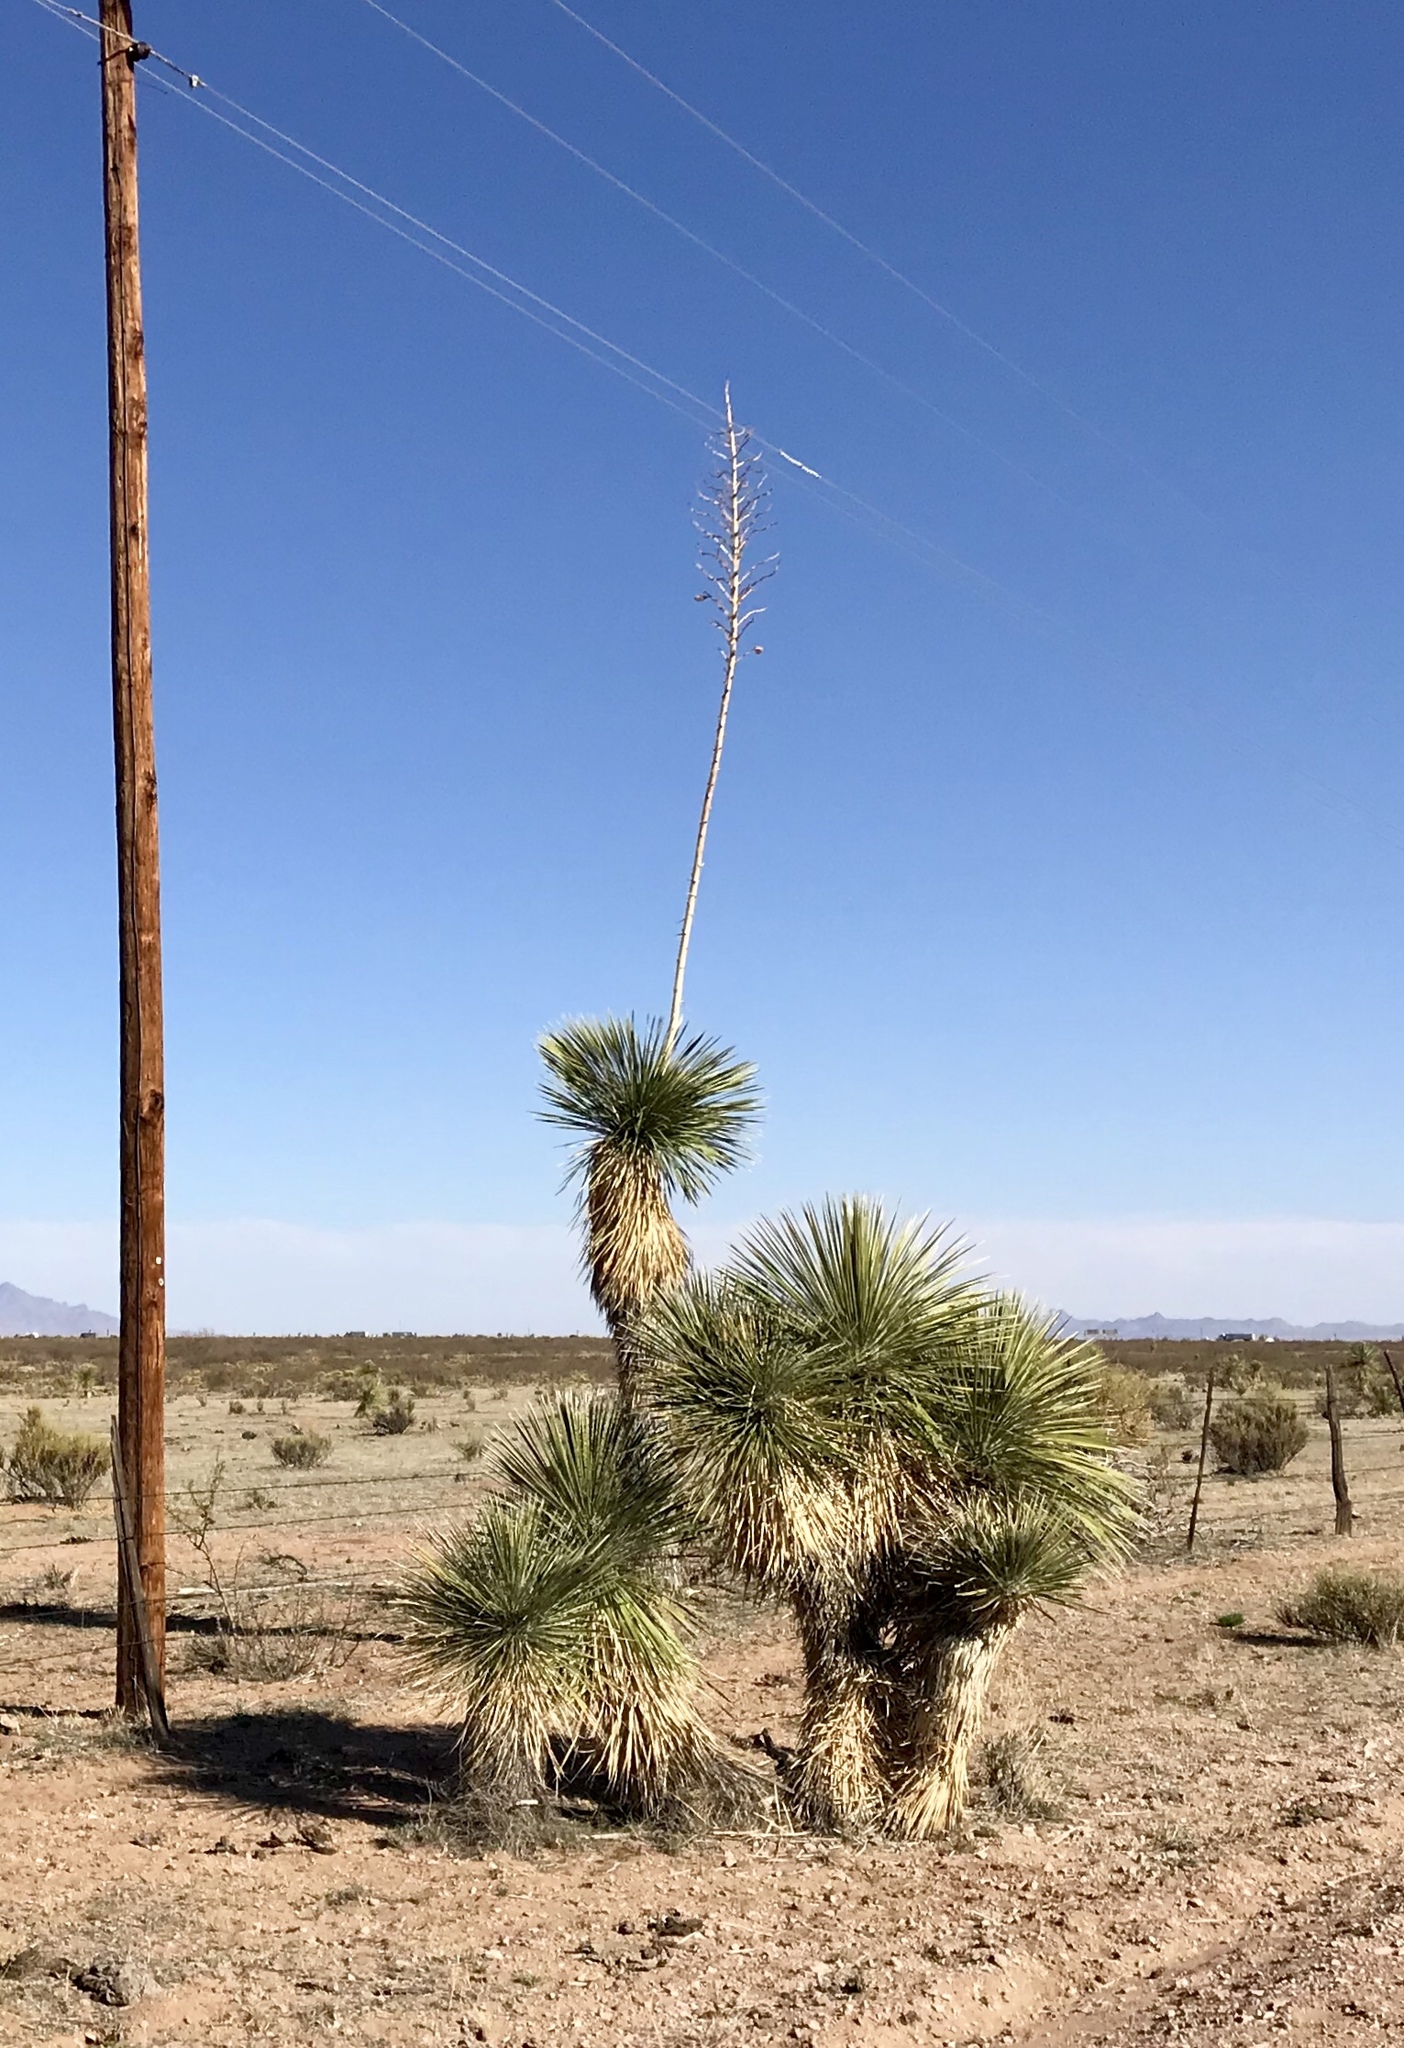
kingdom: Plantae
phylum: Tracheophyta
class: Liliopsida
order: Asparagales
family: Asparagaceae
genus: Yucca
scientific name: Yucca elata
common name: Palmella
